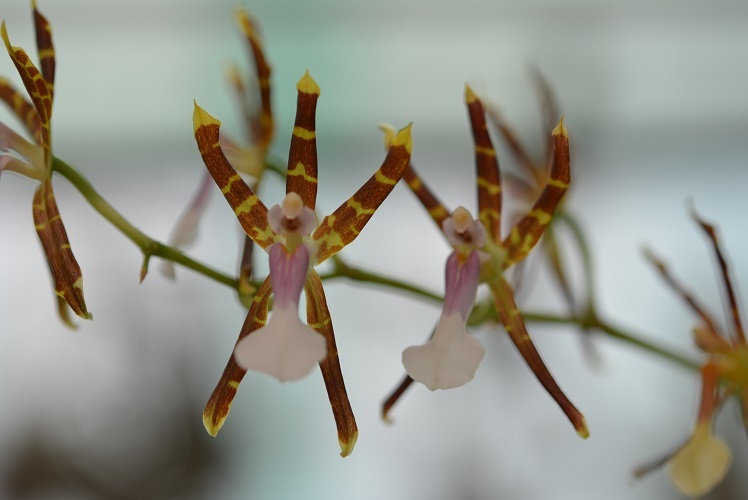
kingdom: Plantae
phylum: Tracheophyta
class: Liliopsida
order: Asparagales
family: Orchidaceae
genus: Oncidium
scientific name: Oncidium laeve
